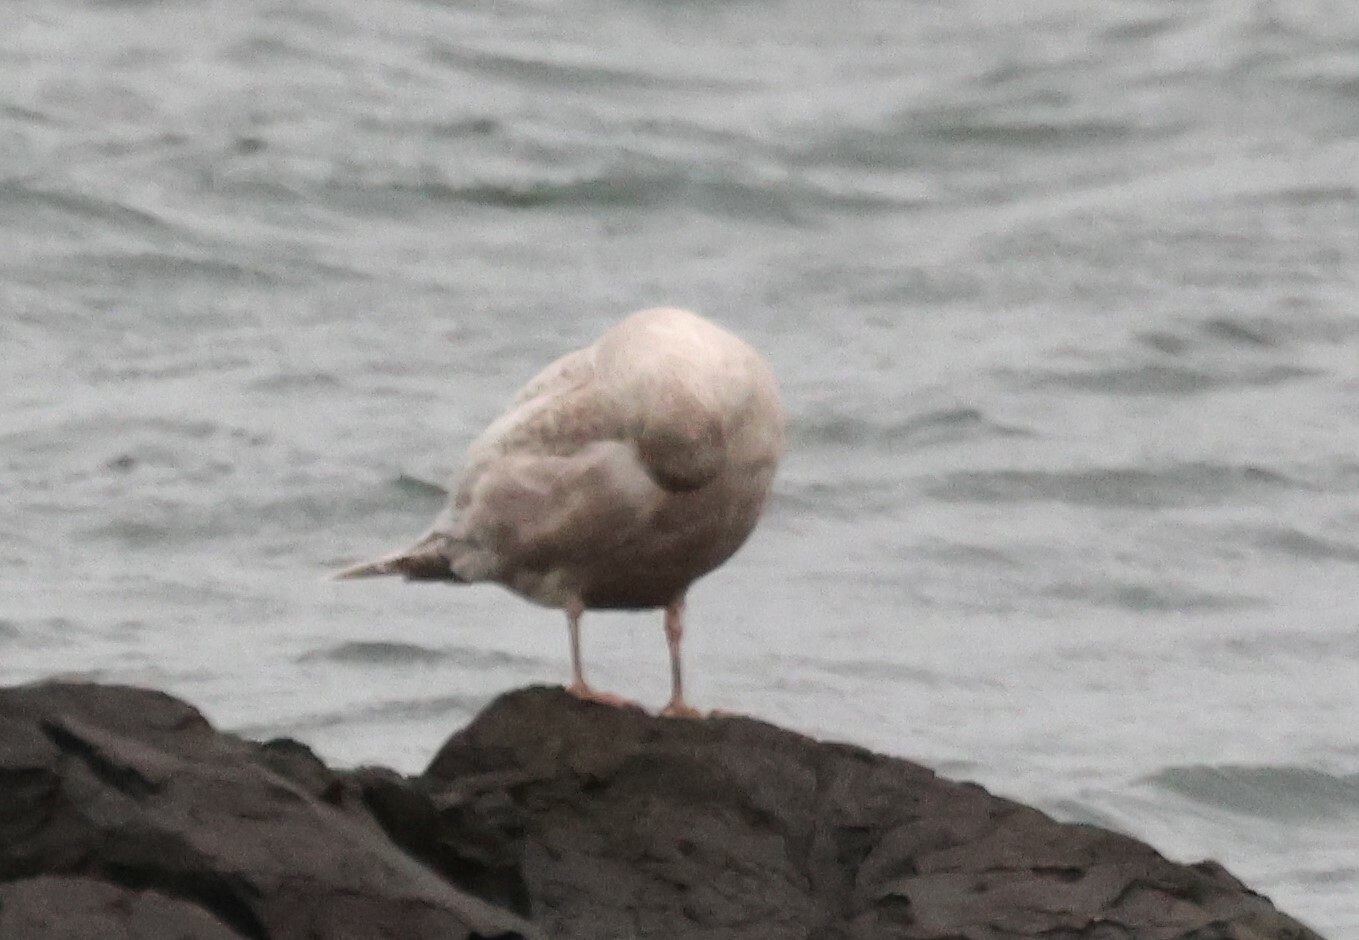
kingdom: Animalia
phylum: Chordata
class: Aves
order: Charadriiformes
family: Laridae
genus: Larus
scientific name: Larus glaucoides
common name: Iceland gull
